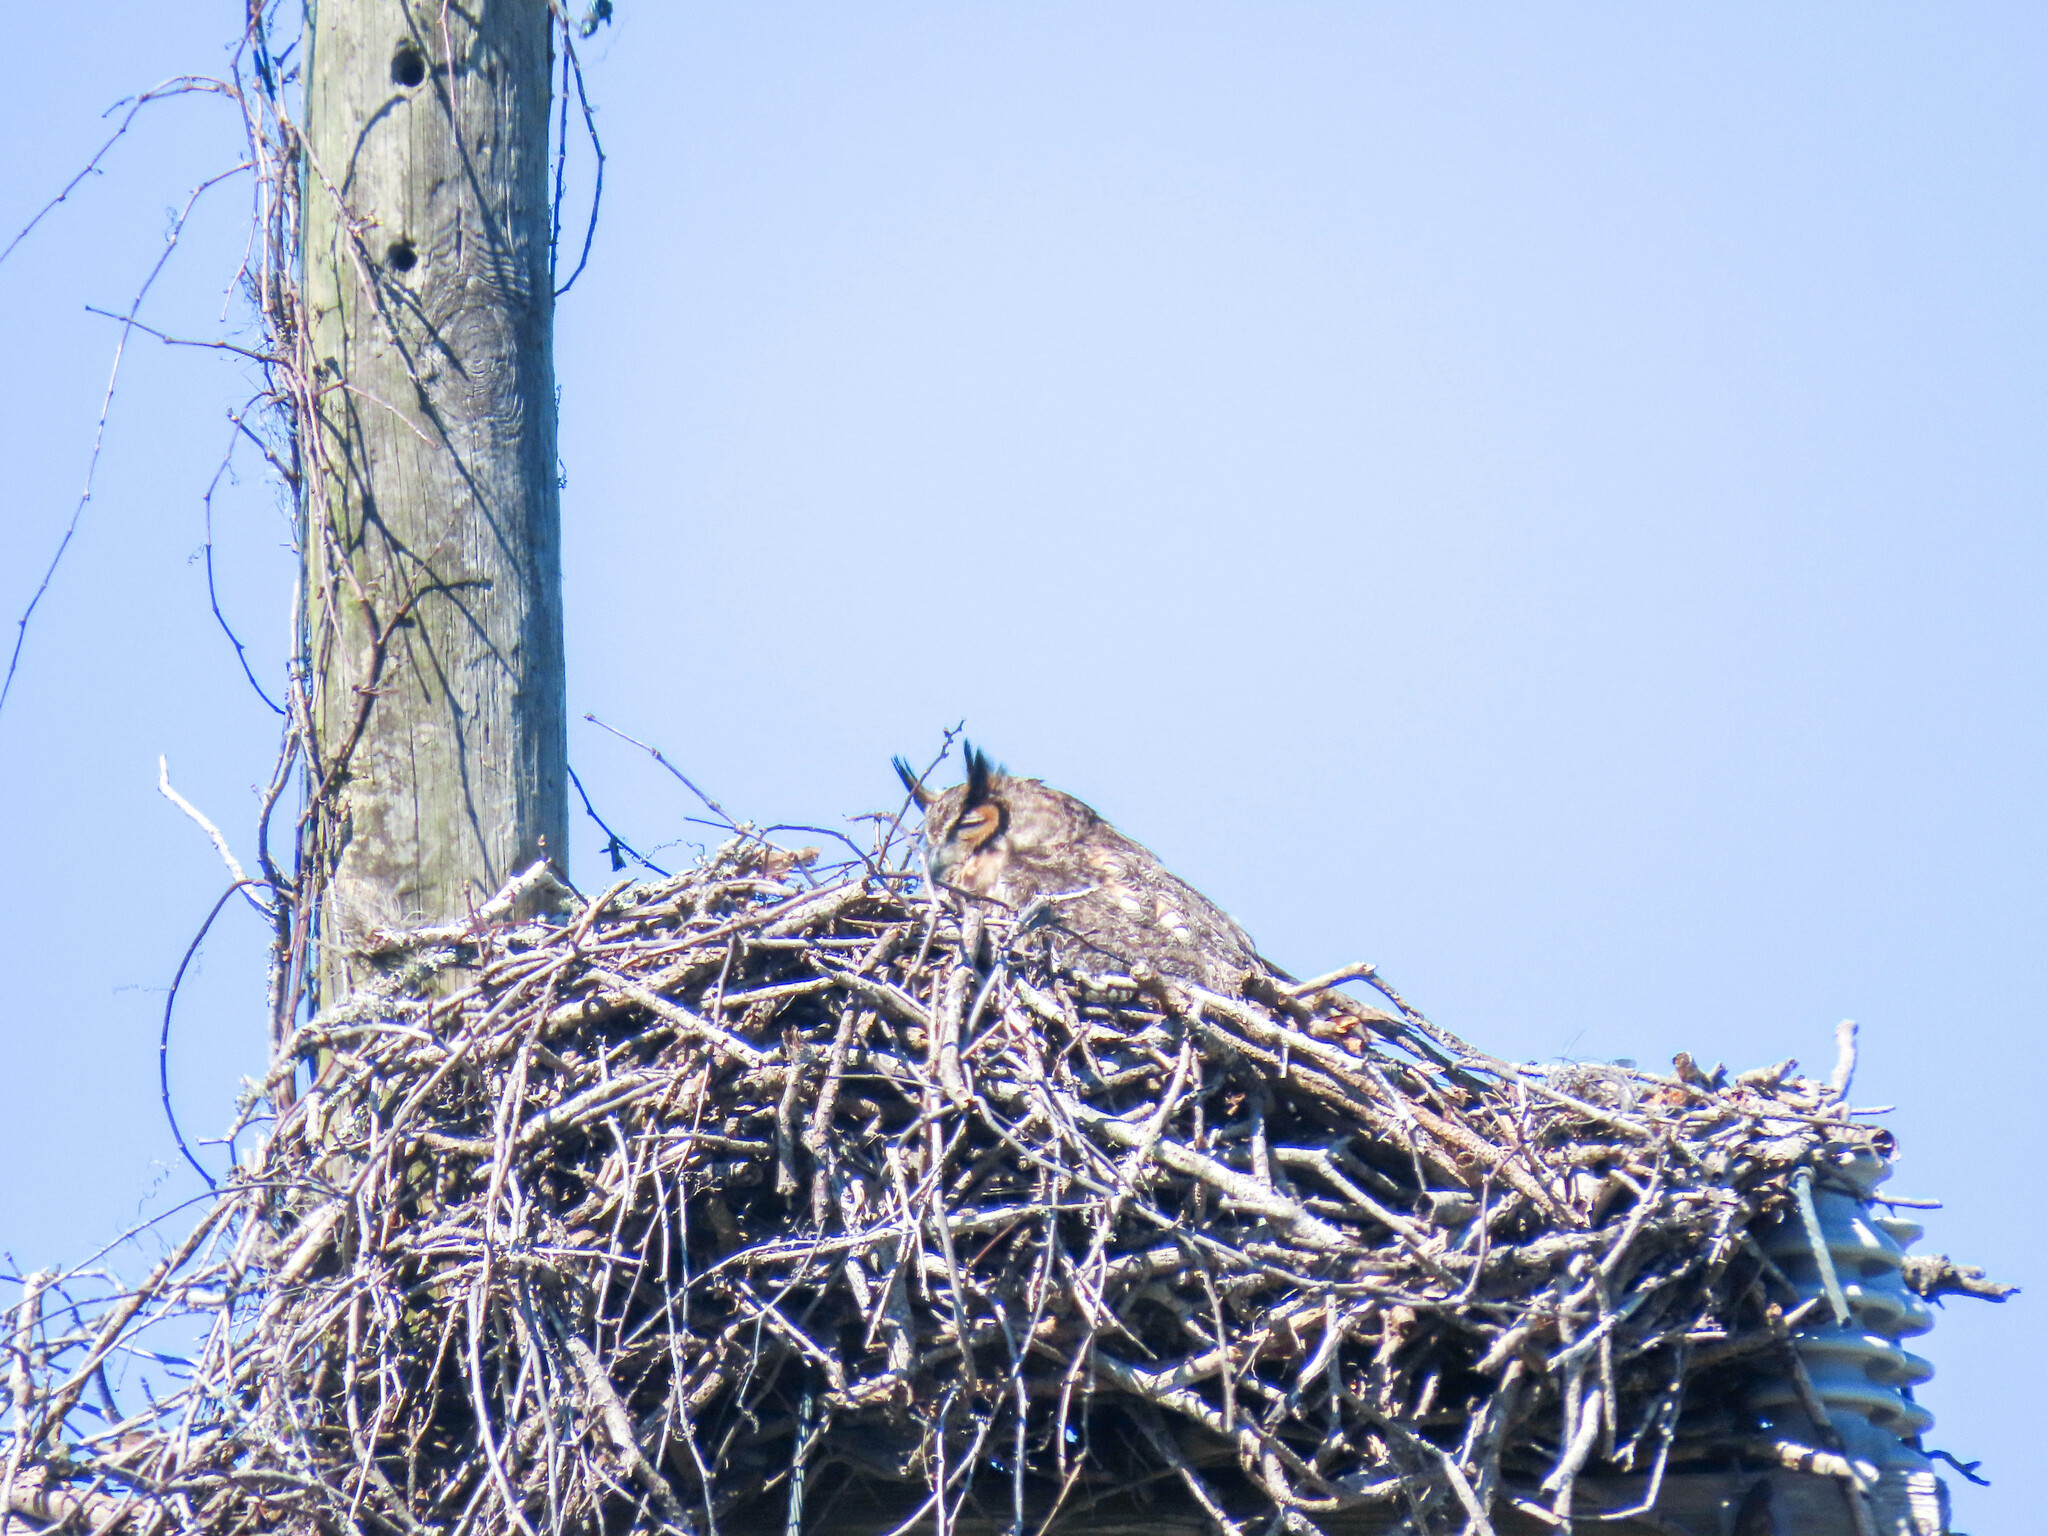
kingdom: Animalia
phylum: Chordata
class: Aves
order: Strigiformes
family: Strigidae
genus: Bubo
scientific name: Bubo virginianus
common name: Great horned owl
